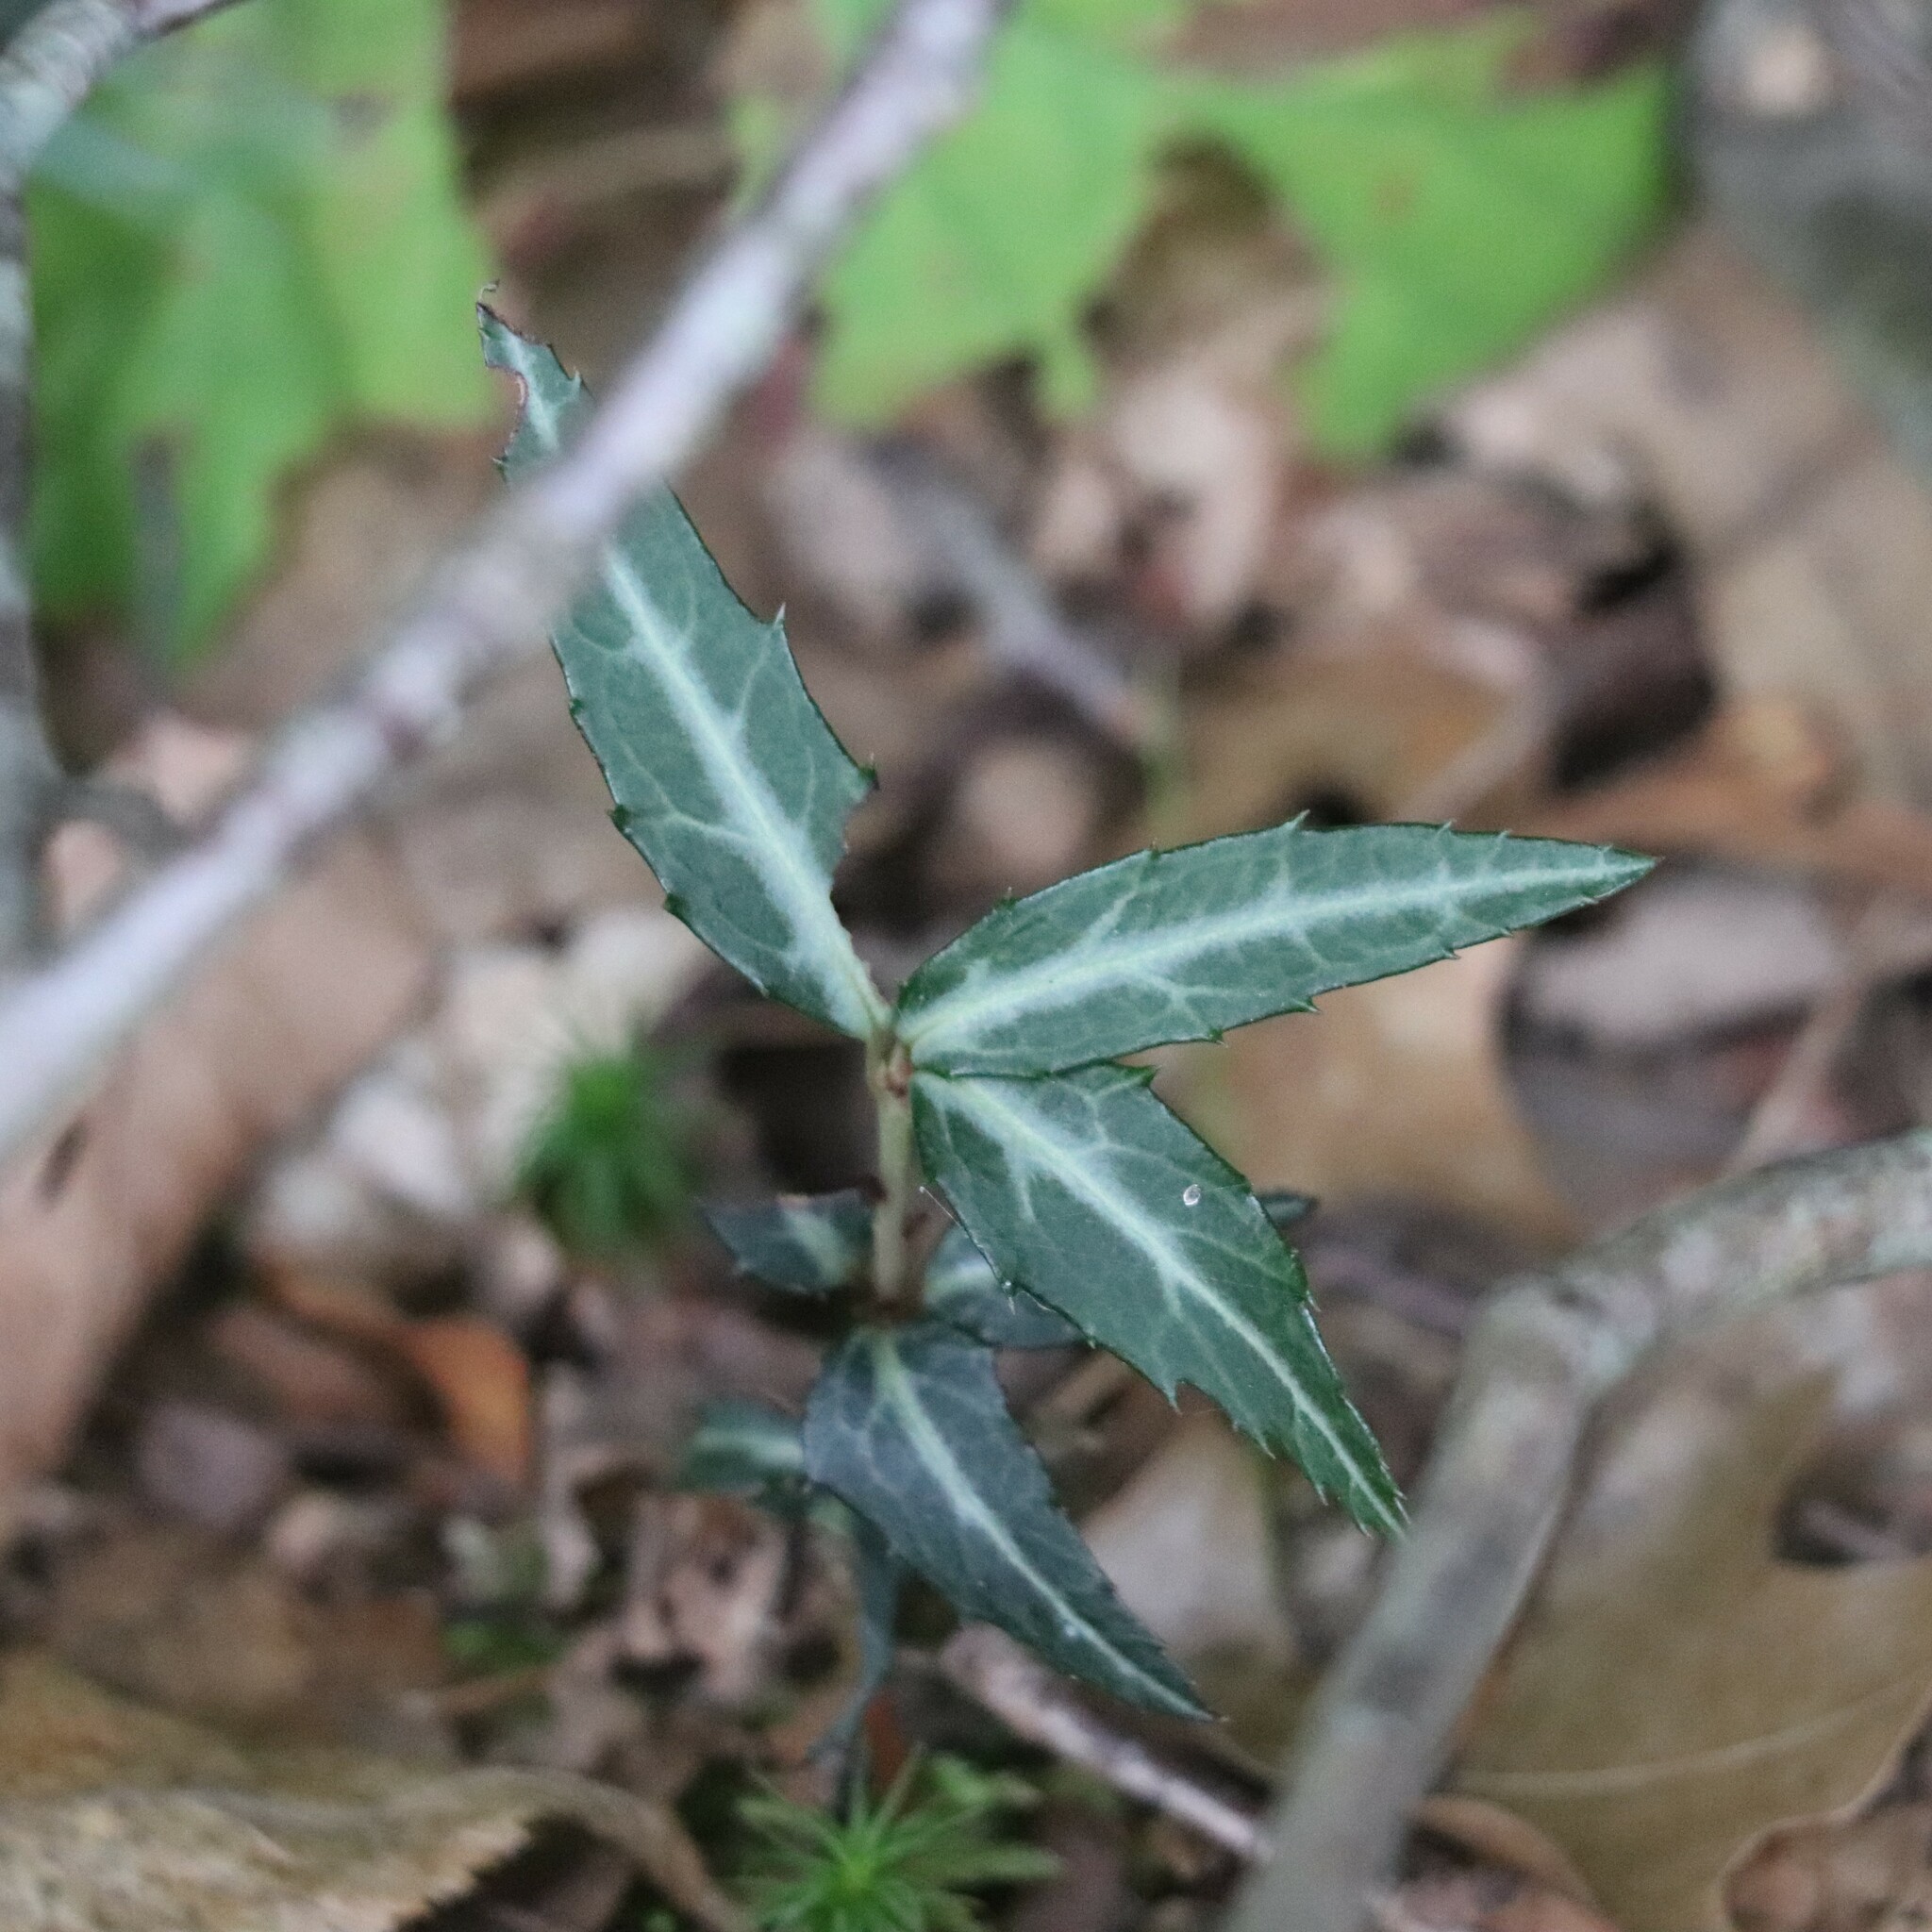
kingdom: Plantae
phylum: Tracheophyta
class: Magnoliopsida
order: Ericales
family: Ericaceae
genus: Chimaphila
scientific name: Chimaphila maculata
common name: Spotted pipsissewa
